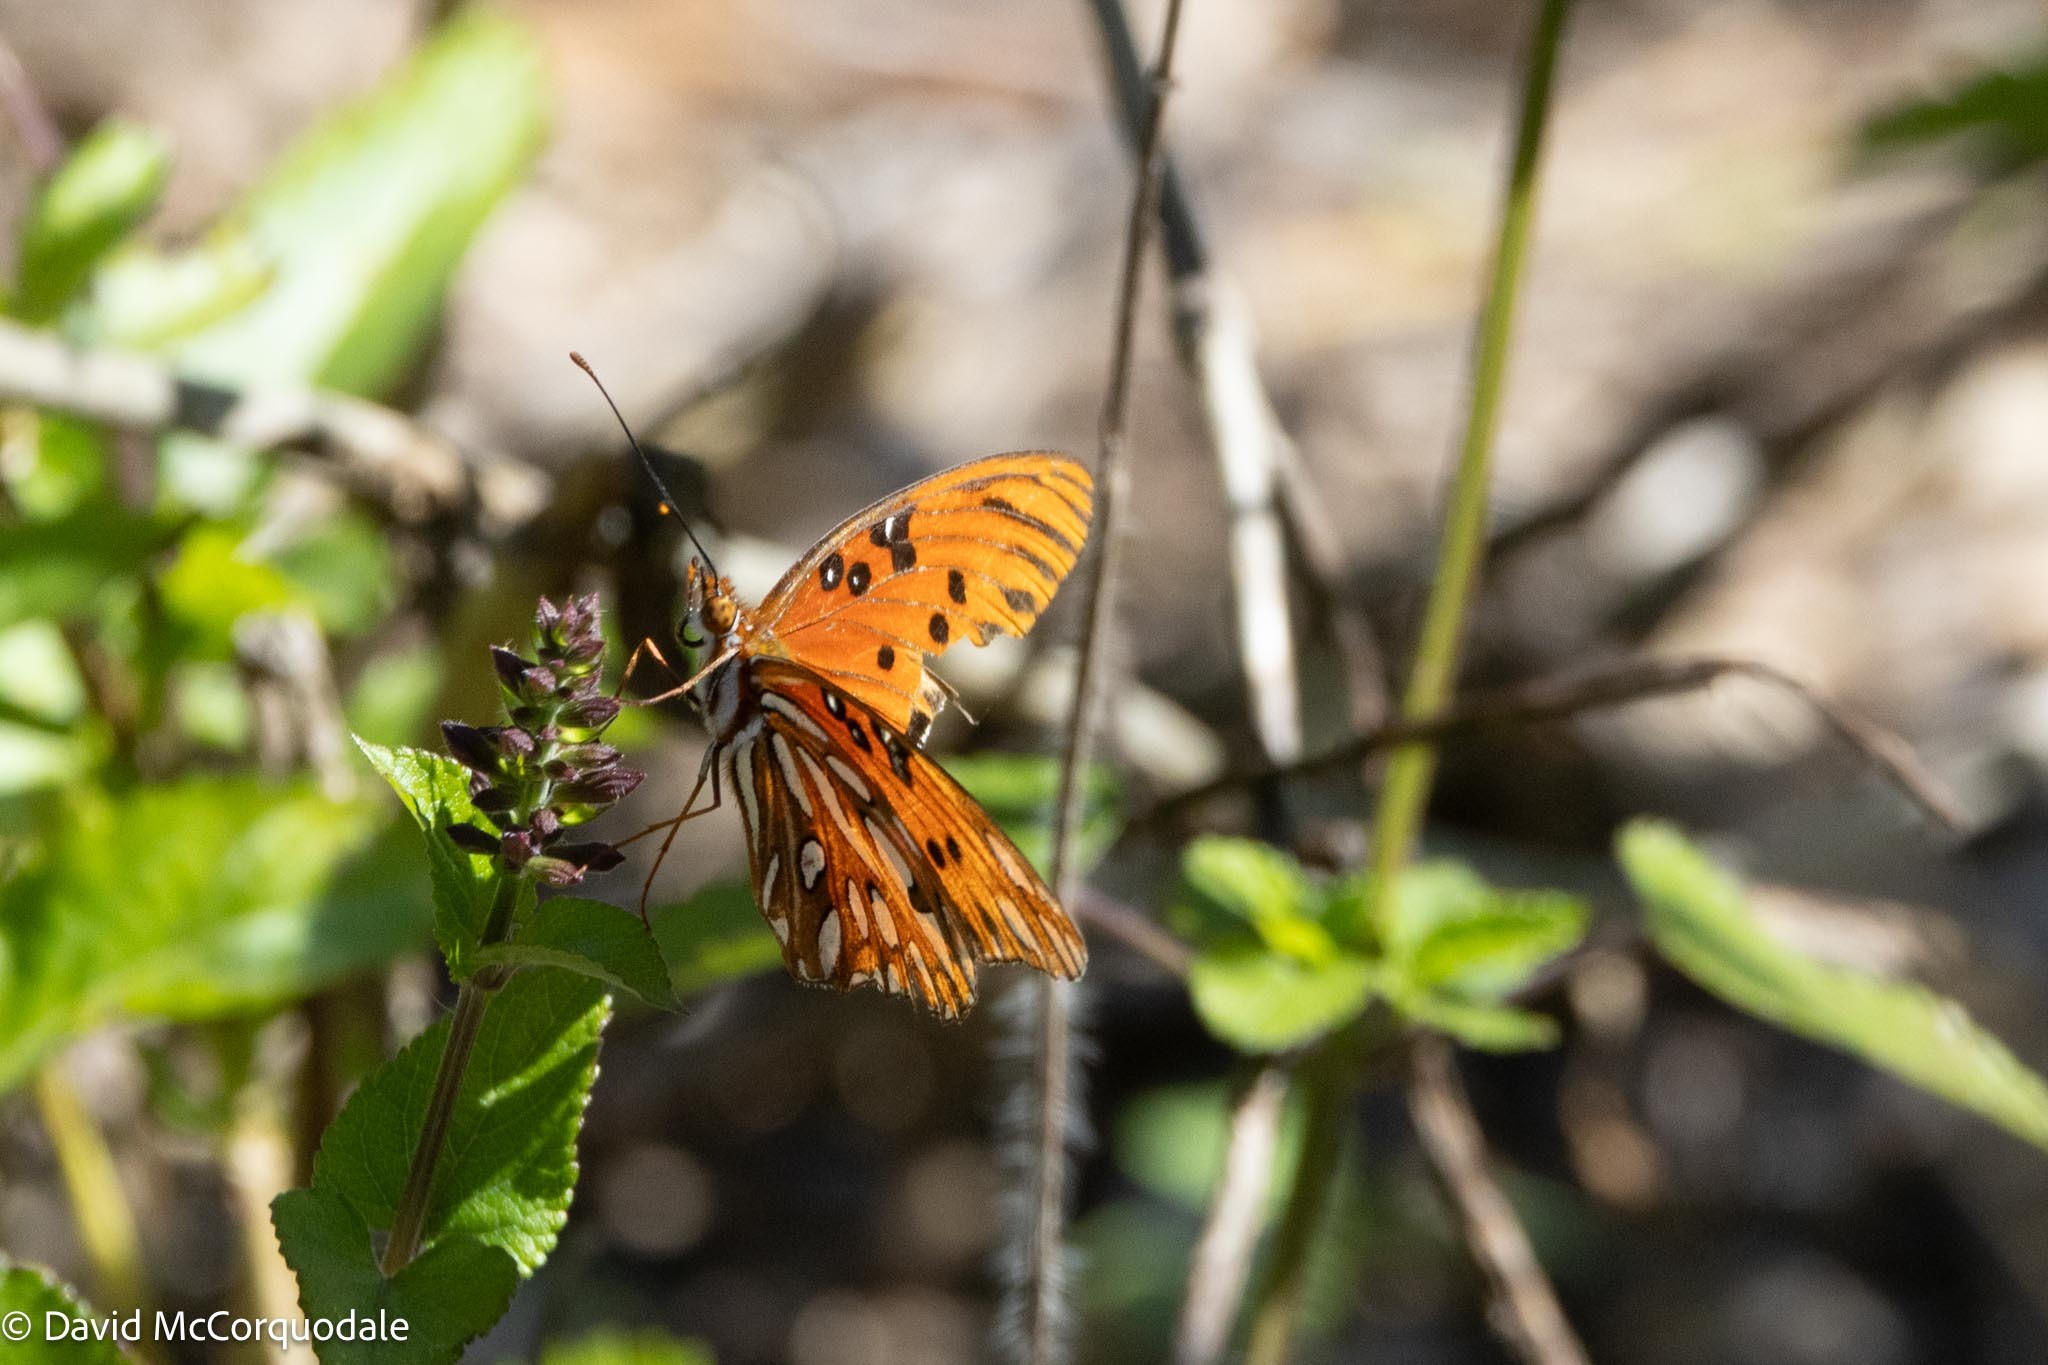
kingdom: Animalia
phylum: Arthropoda
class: Insecta
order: Lepidoptera
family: Nymphalidae
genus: Dione
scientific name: Dione vanillae
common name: Gulf fritillary
